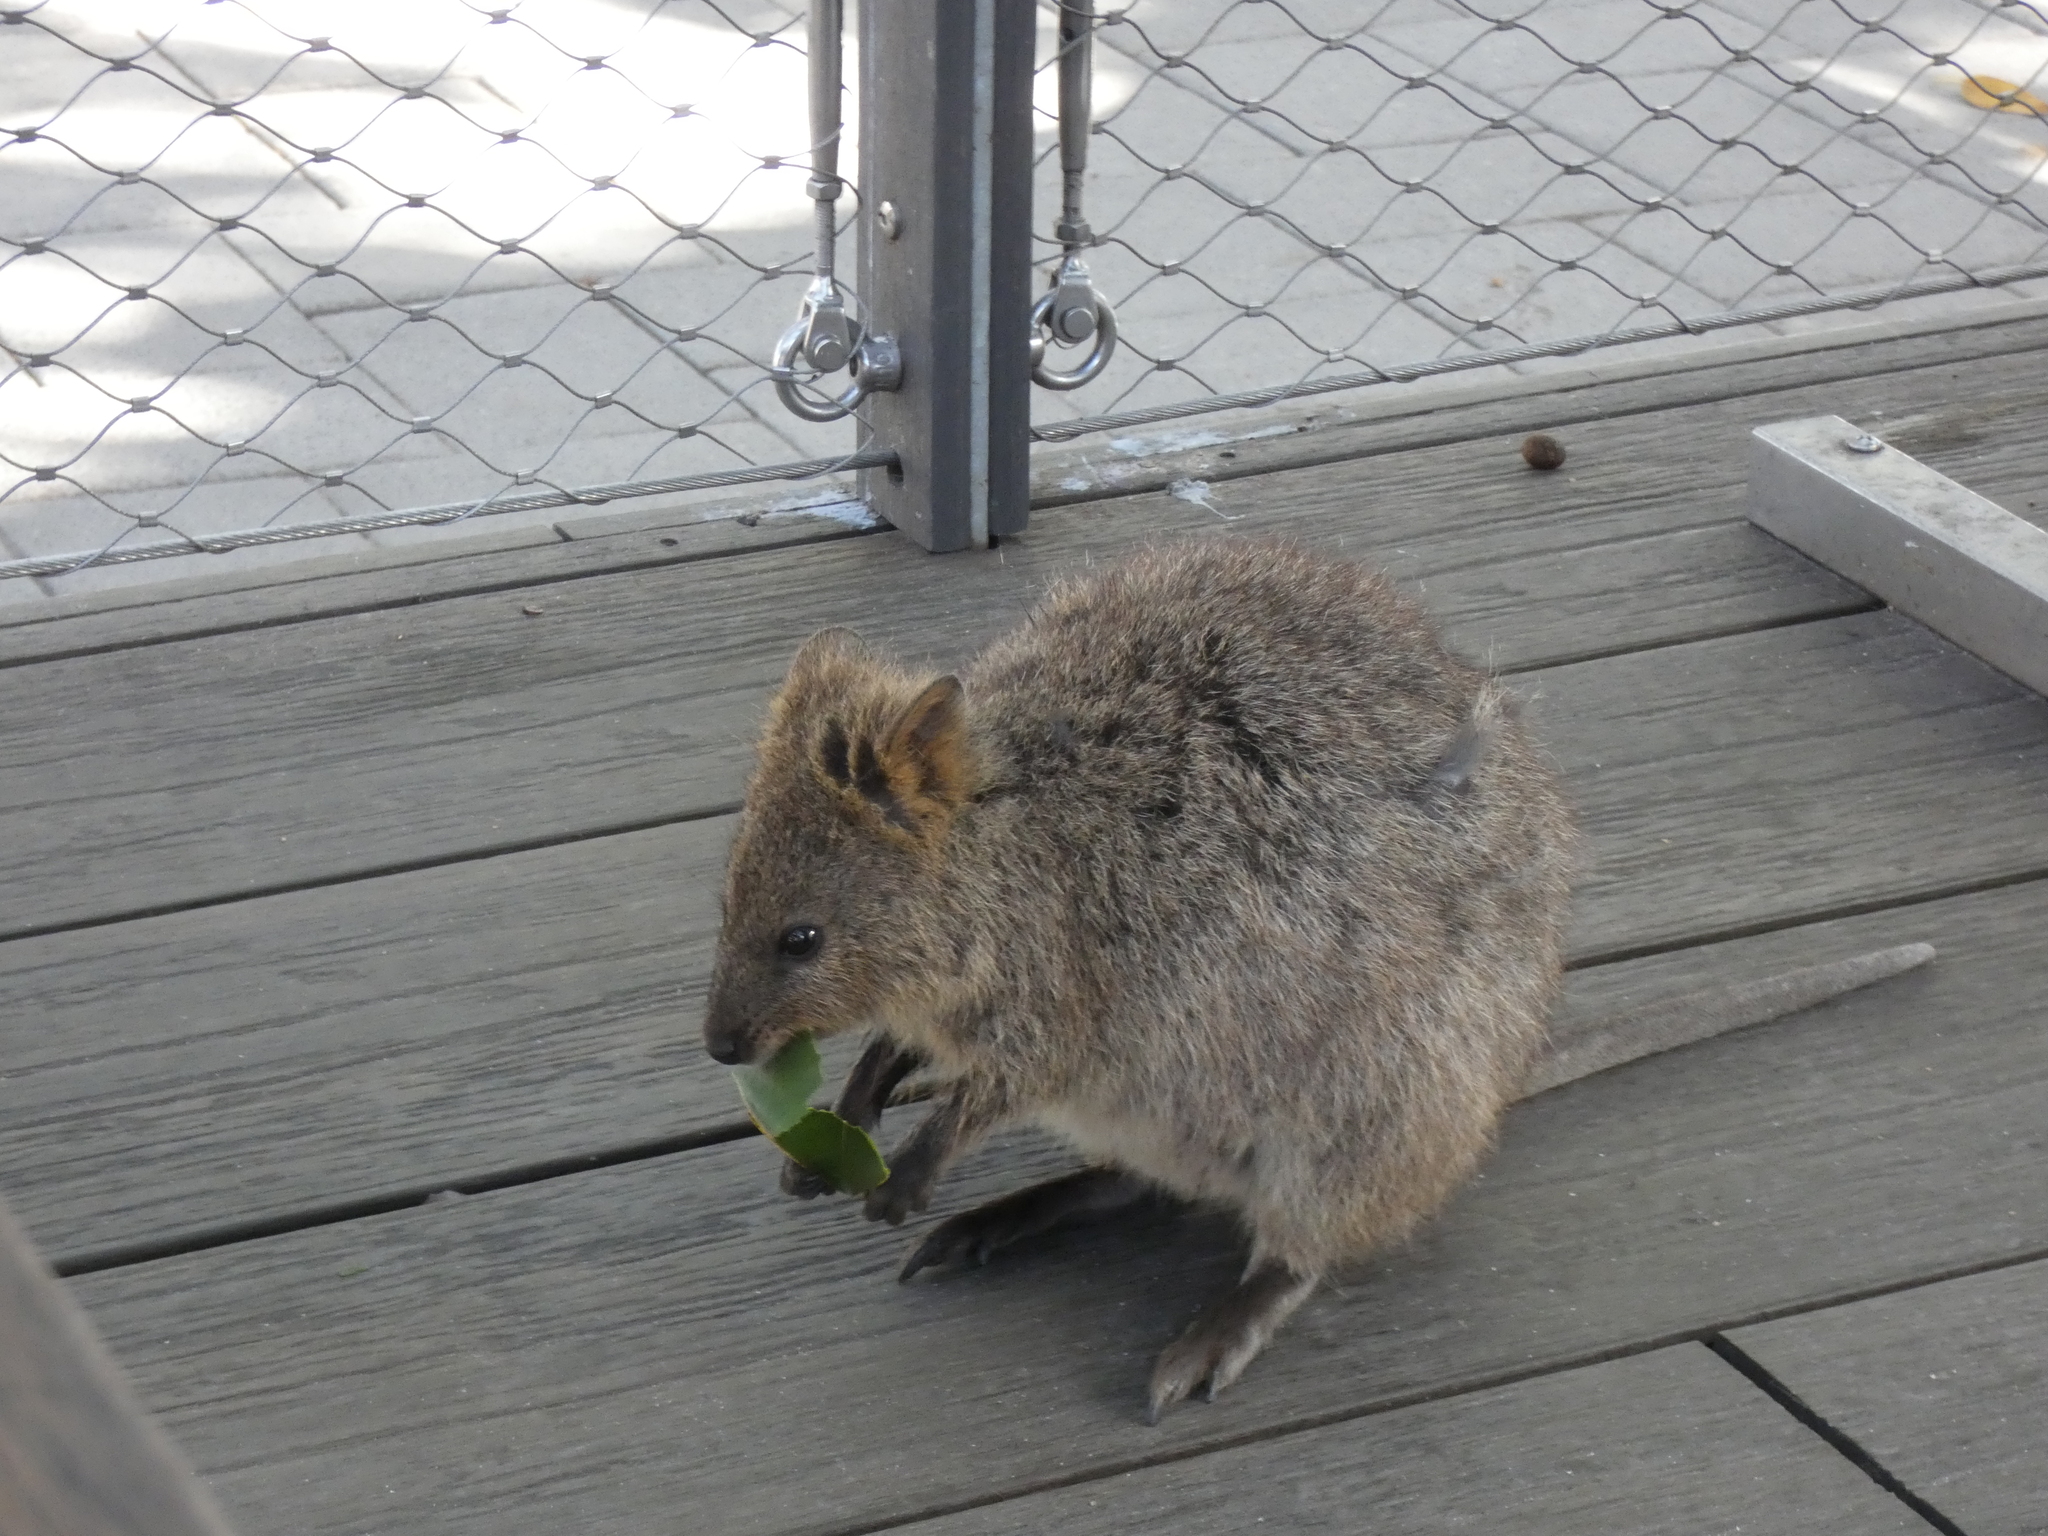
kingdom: Animalia
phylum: Chordata
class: Mammalia
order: Diprotodontia
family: Macropodidae
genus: Setonix
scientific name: Setonix brachyurus
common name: Quokka
